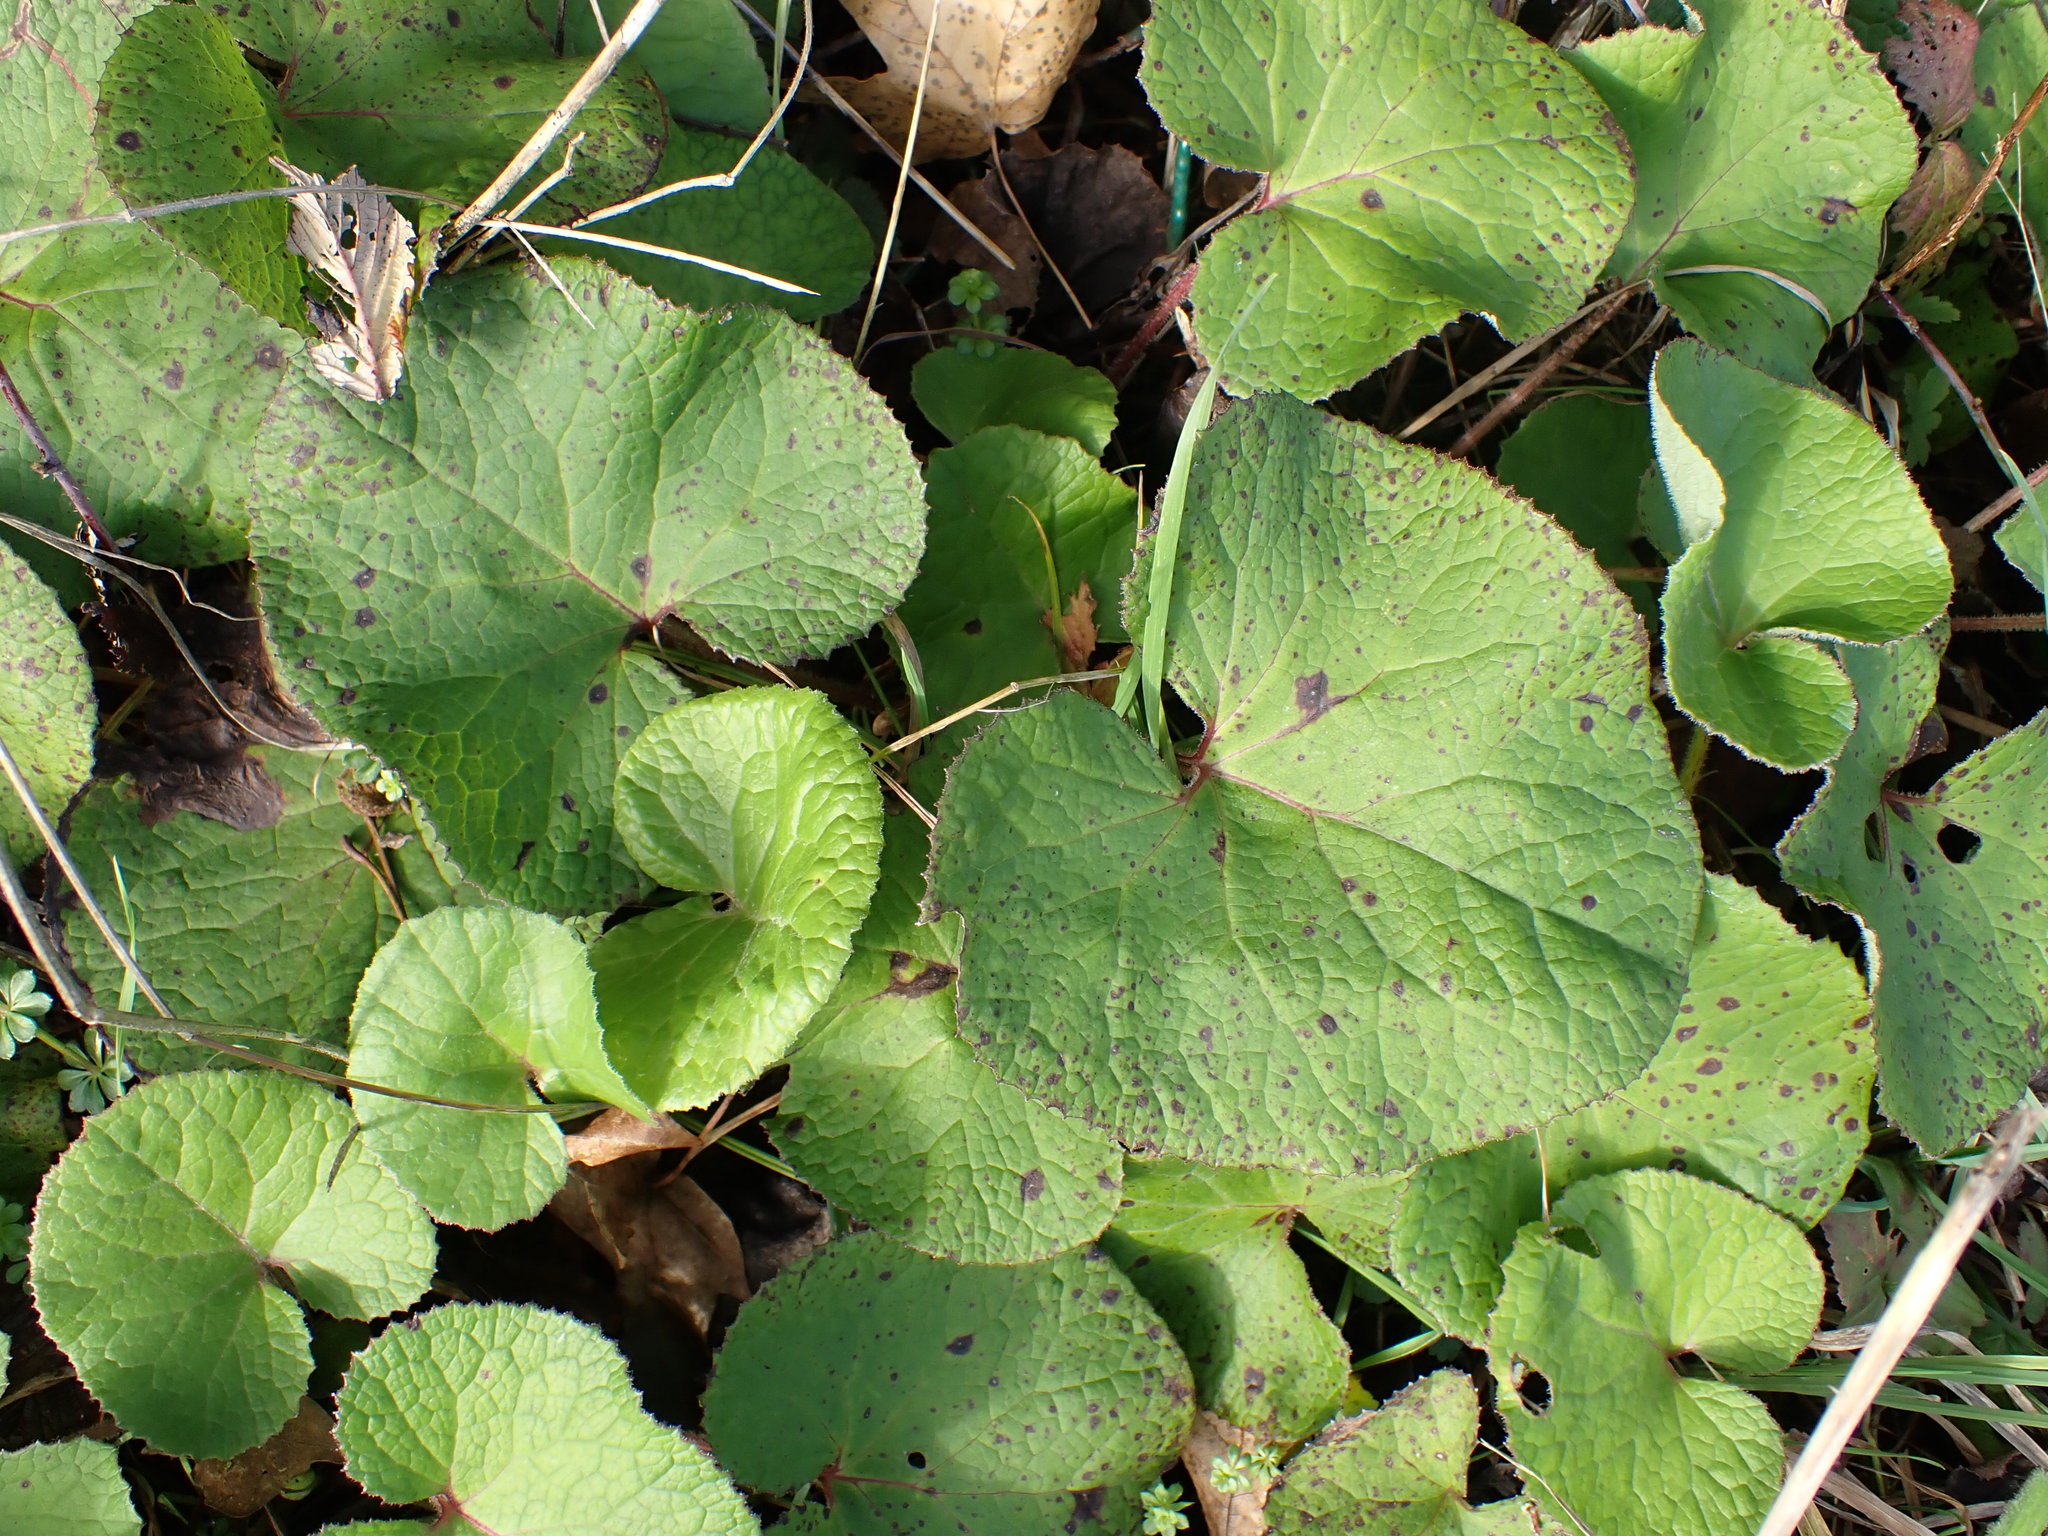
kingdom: Plantae
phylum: Tracheophyta
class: Magnoliopsida
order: Asterales
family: Asteraceae
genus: Petasites
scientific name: Petasites pyrenaicus
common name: Winter heliotrope
